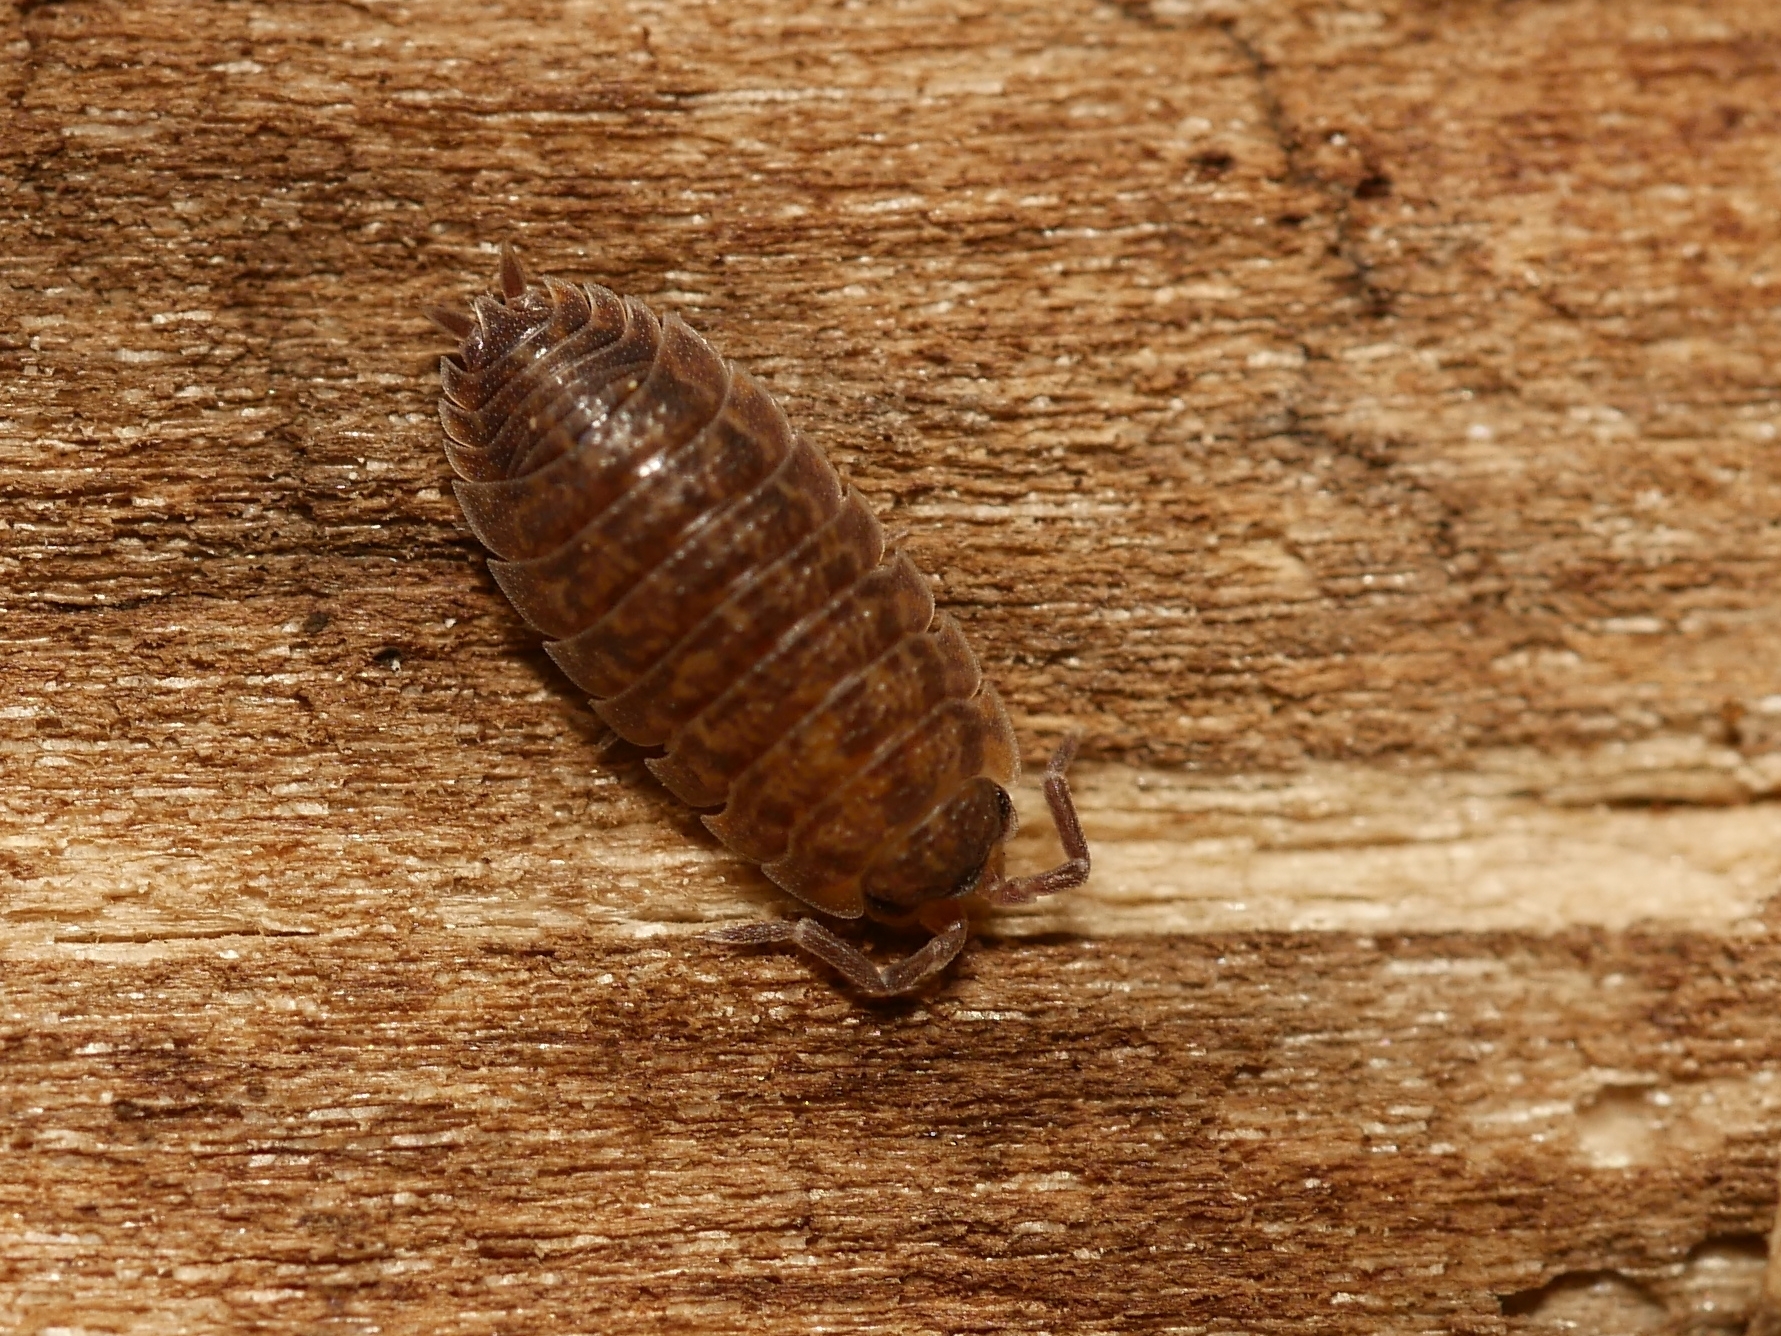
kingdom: Animalia
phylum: Arthropoda
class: Malacostraca
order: Isopoda
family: Porcellionidae
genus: Porcellio
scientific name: Porcellio scaber
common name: Common rough woodlouse
